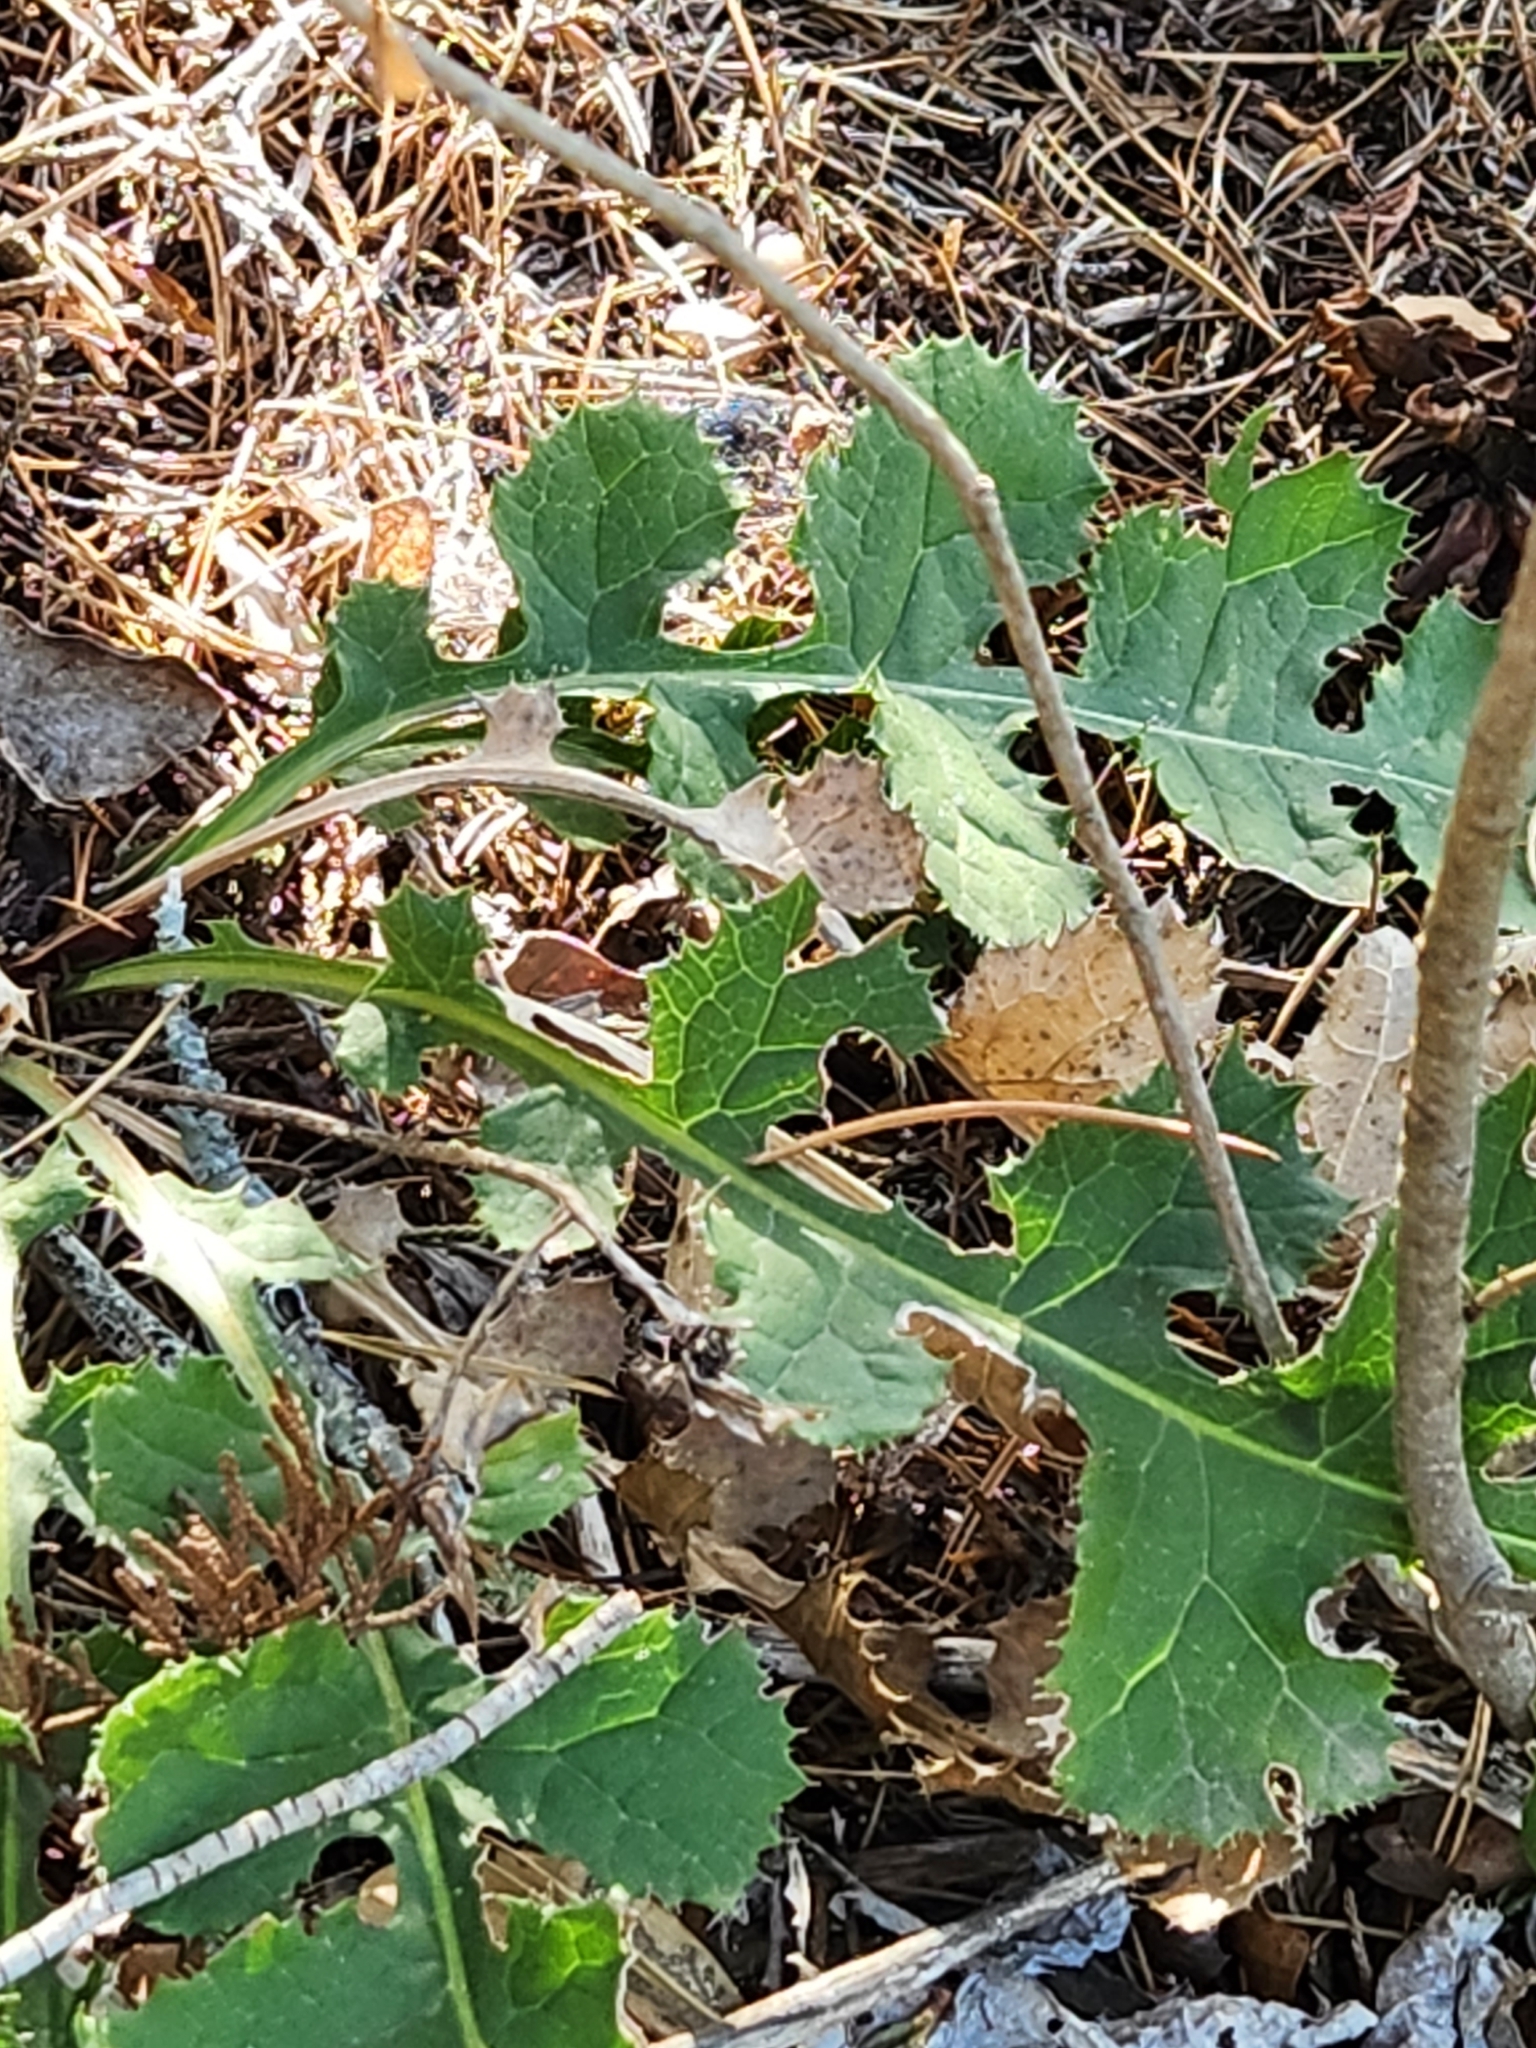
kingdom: Plantae
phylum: Tracheophyta
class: Magnoliopsida
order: Asterales
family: Asteraceae
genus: Acourtia
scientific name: Acourtia runcinata
